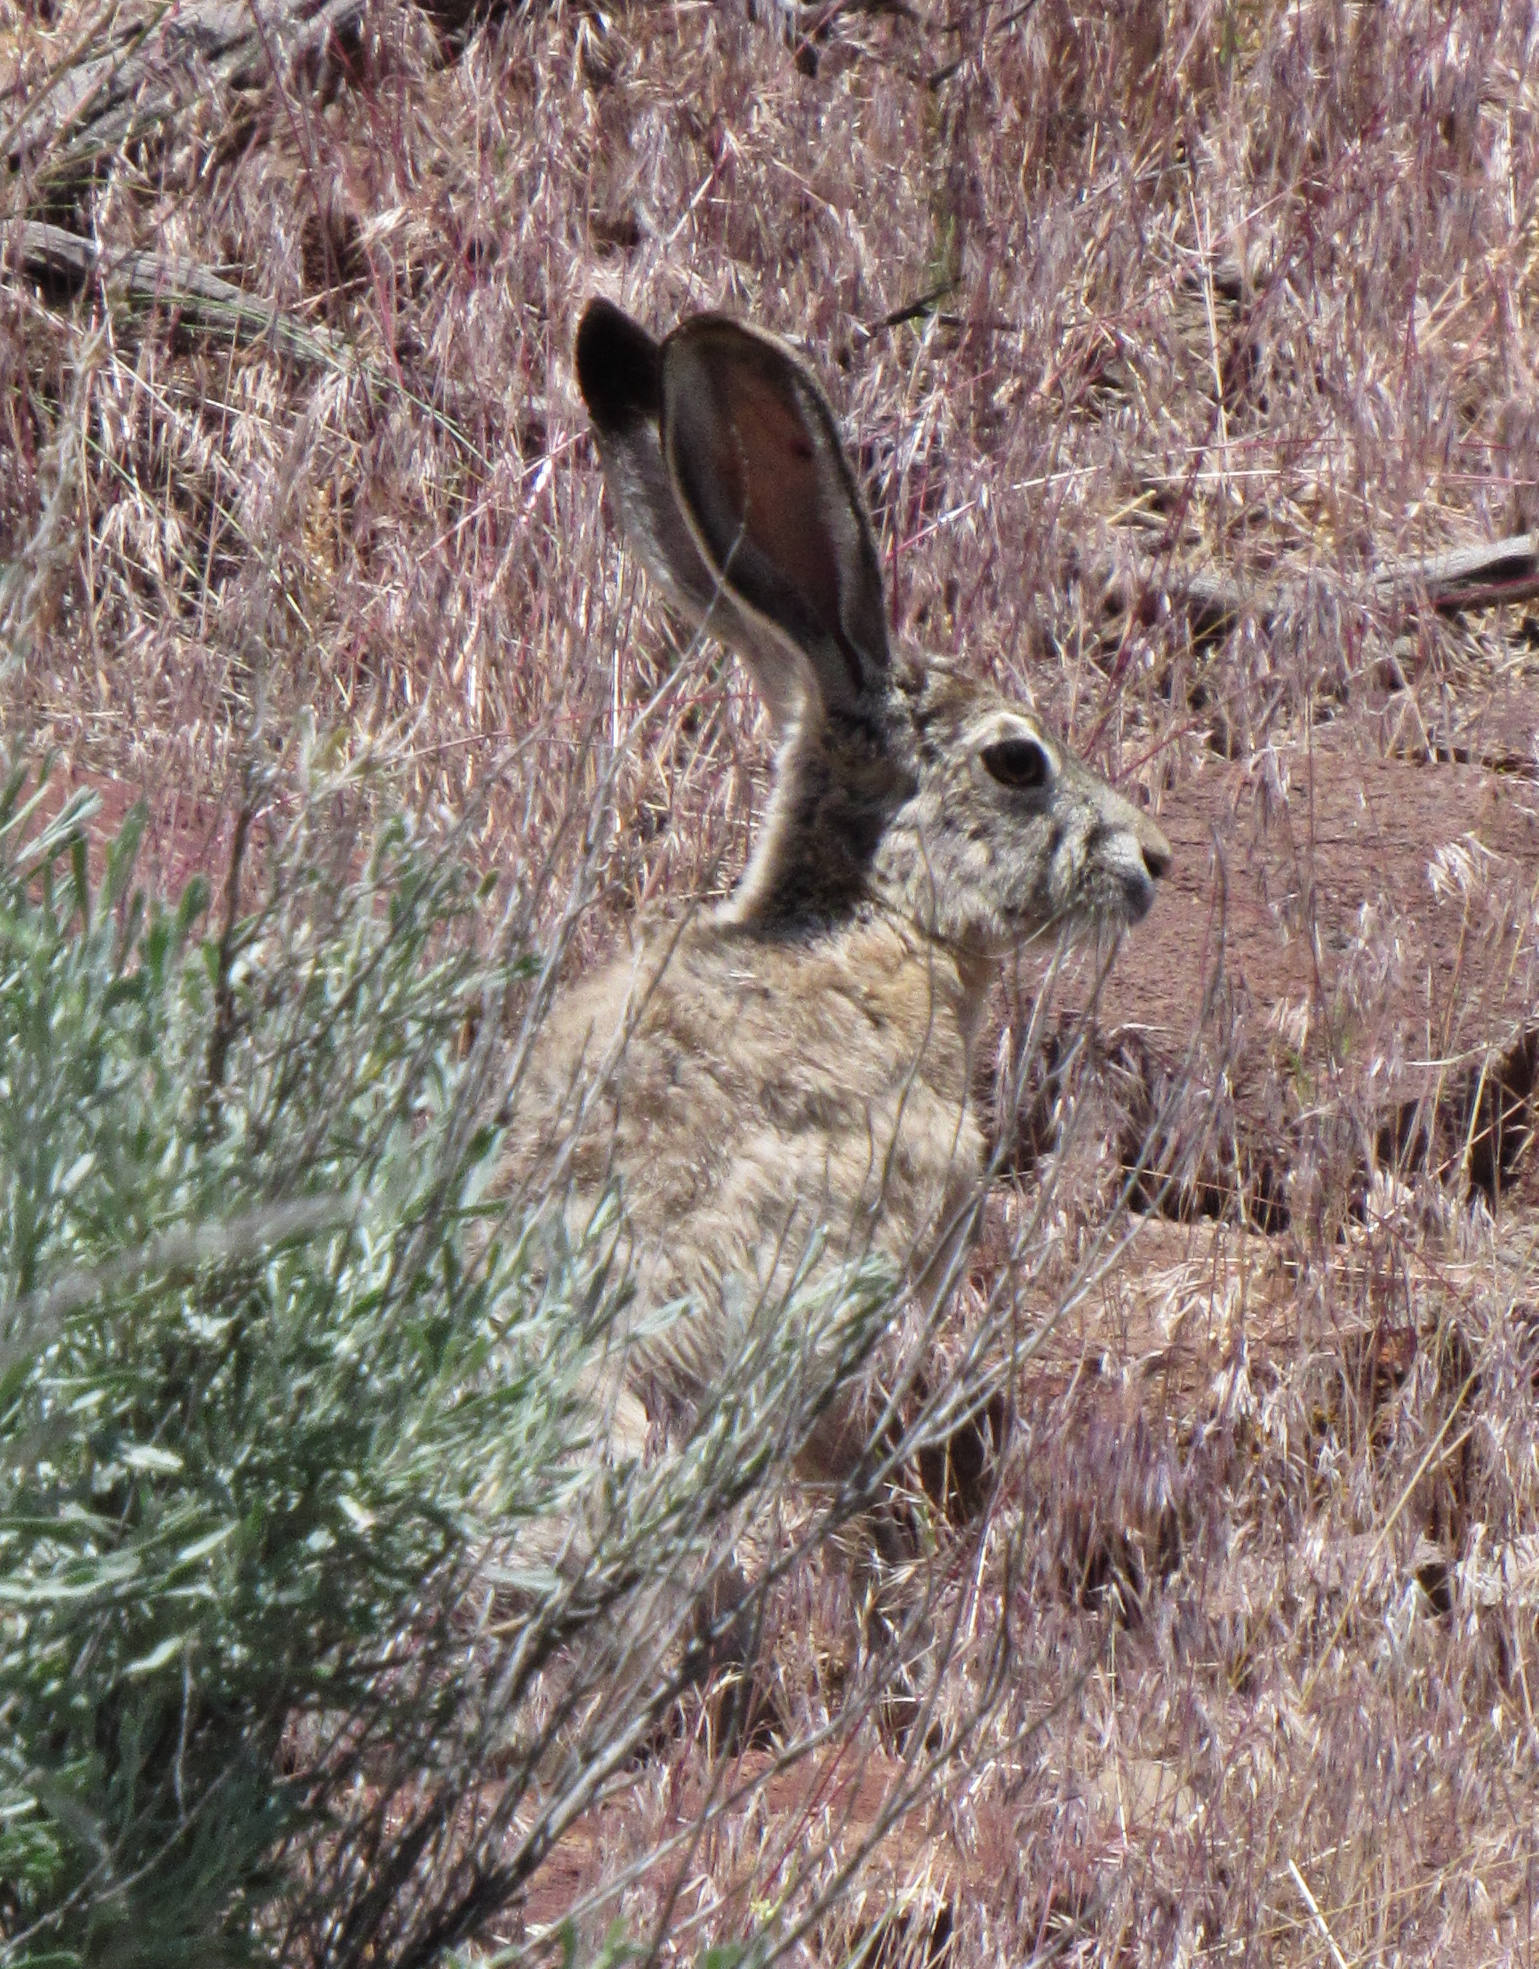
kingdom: Animalia
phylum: Chordata
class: Mammalia
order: Lagomorpha
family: Leporidae
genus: Lepus
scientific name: Lepus californicus
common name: Black-tailed jackrabbit
